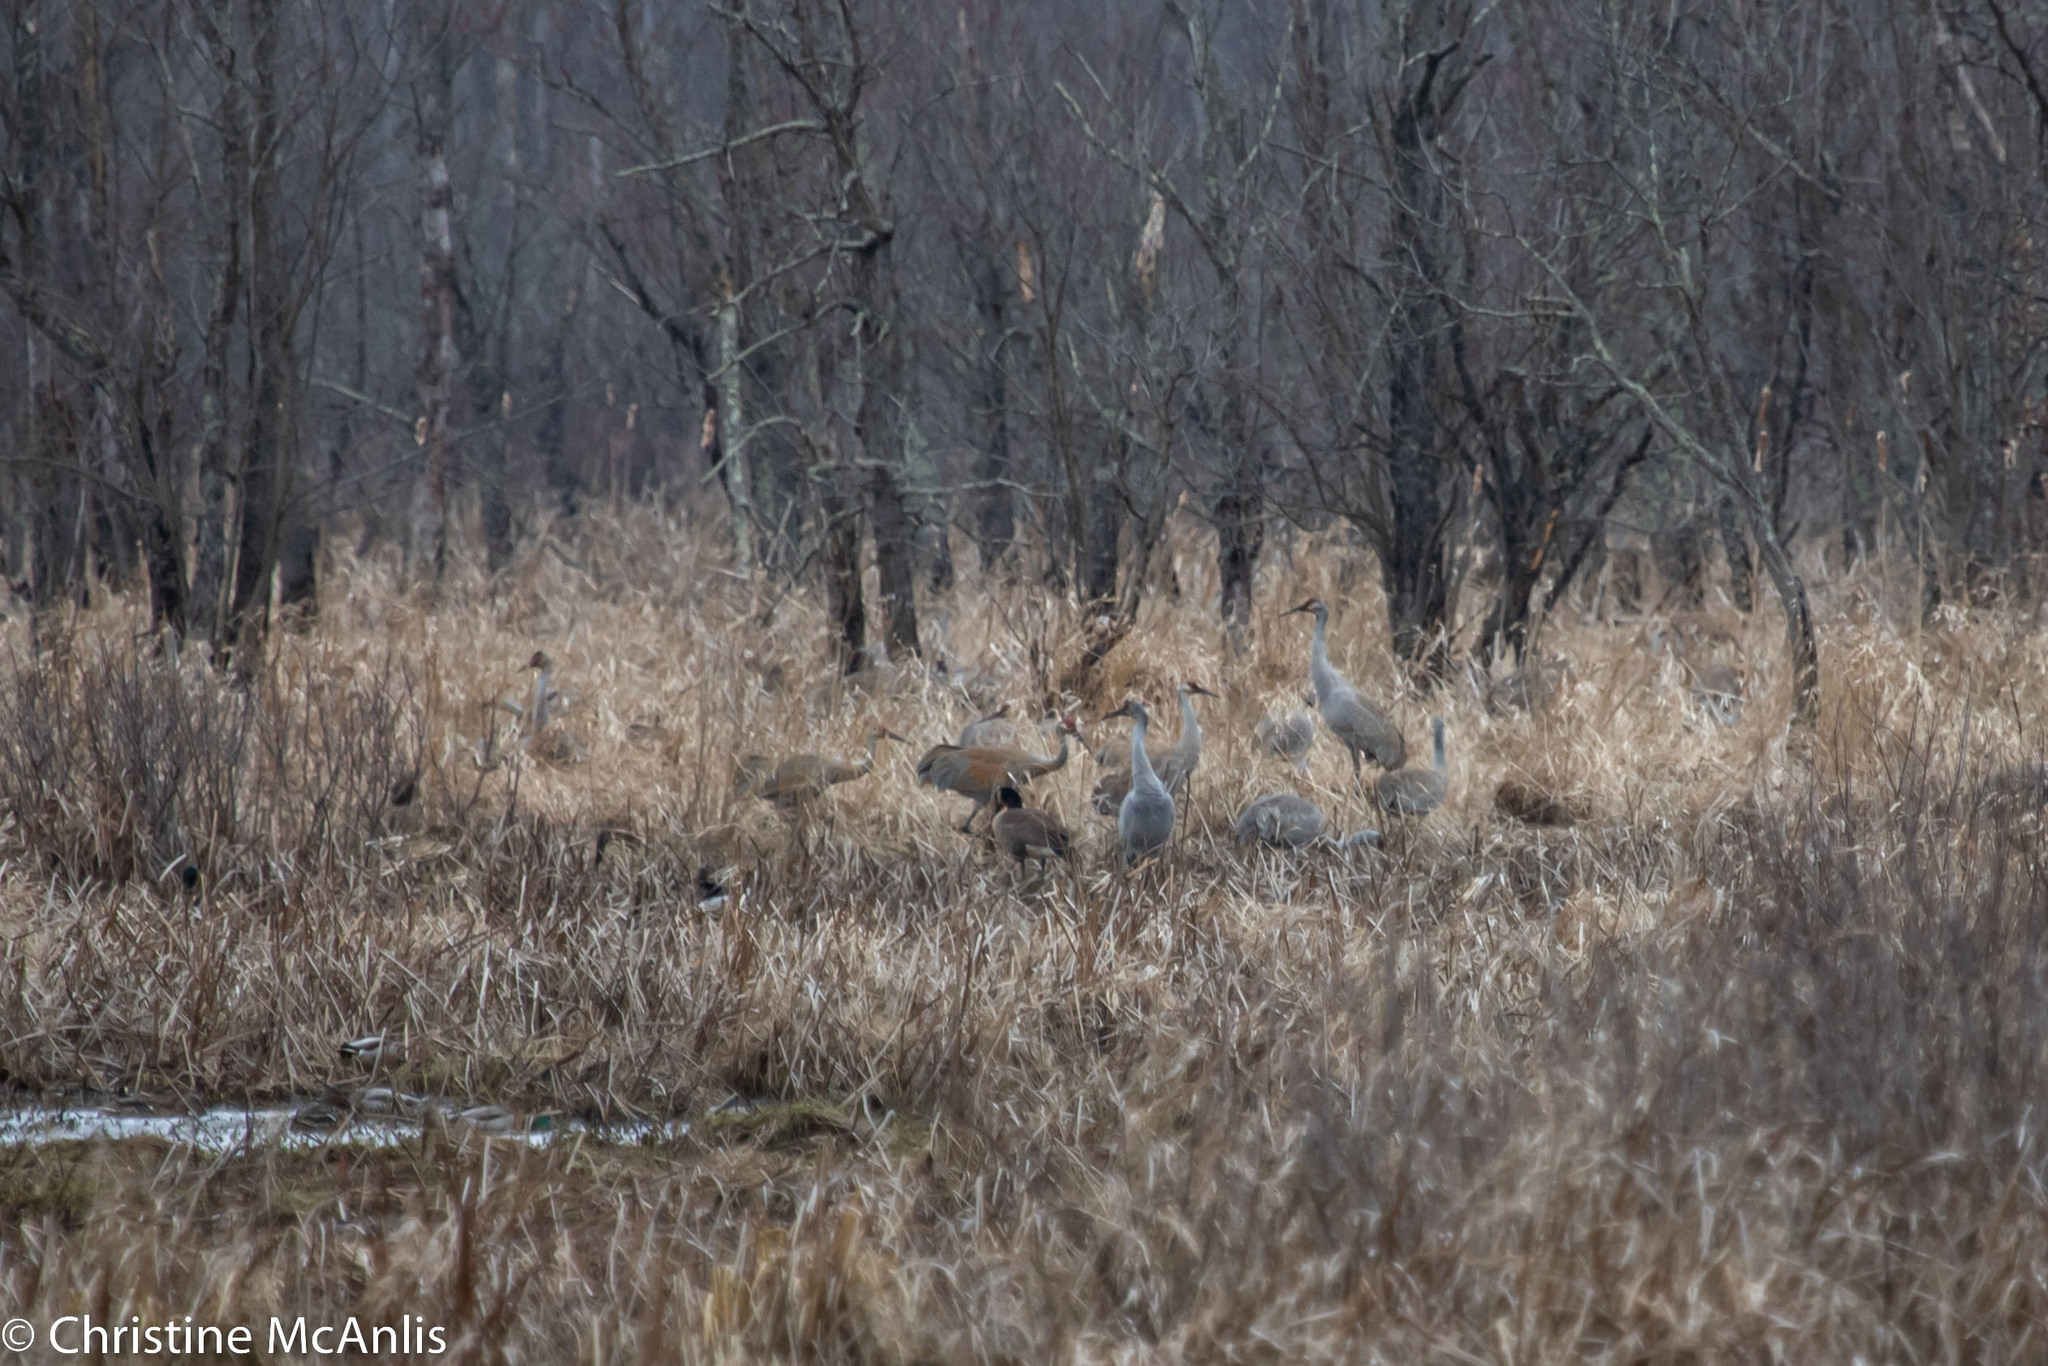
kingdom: Animalia
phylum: Chordata
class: Aves
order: Gruiformes
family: Gruidae
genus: Grus
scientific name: Grus canadensis
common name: Sandhill crane
